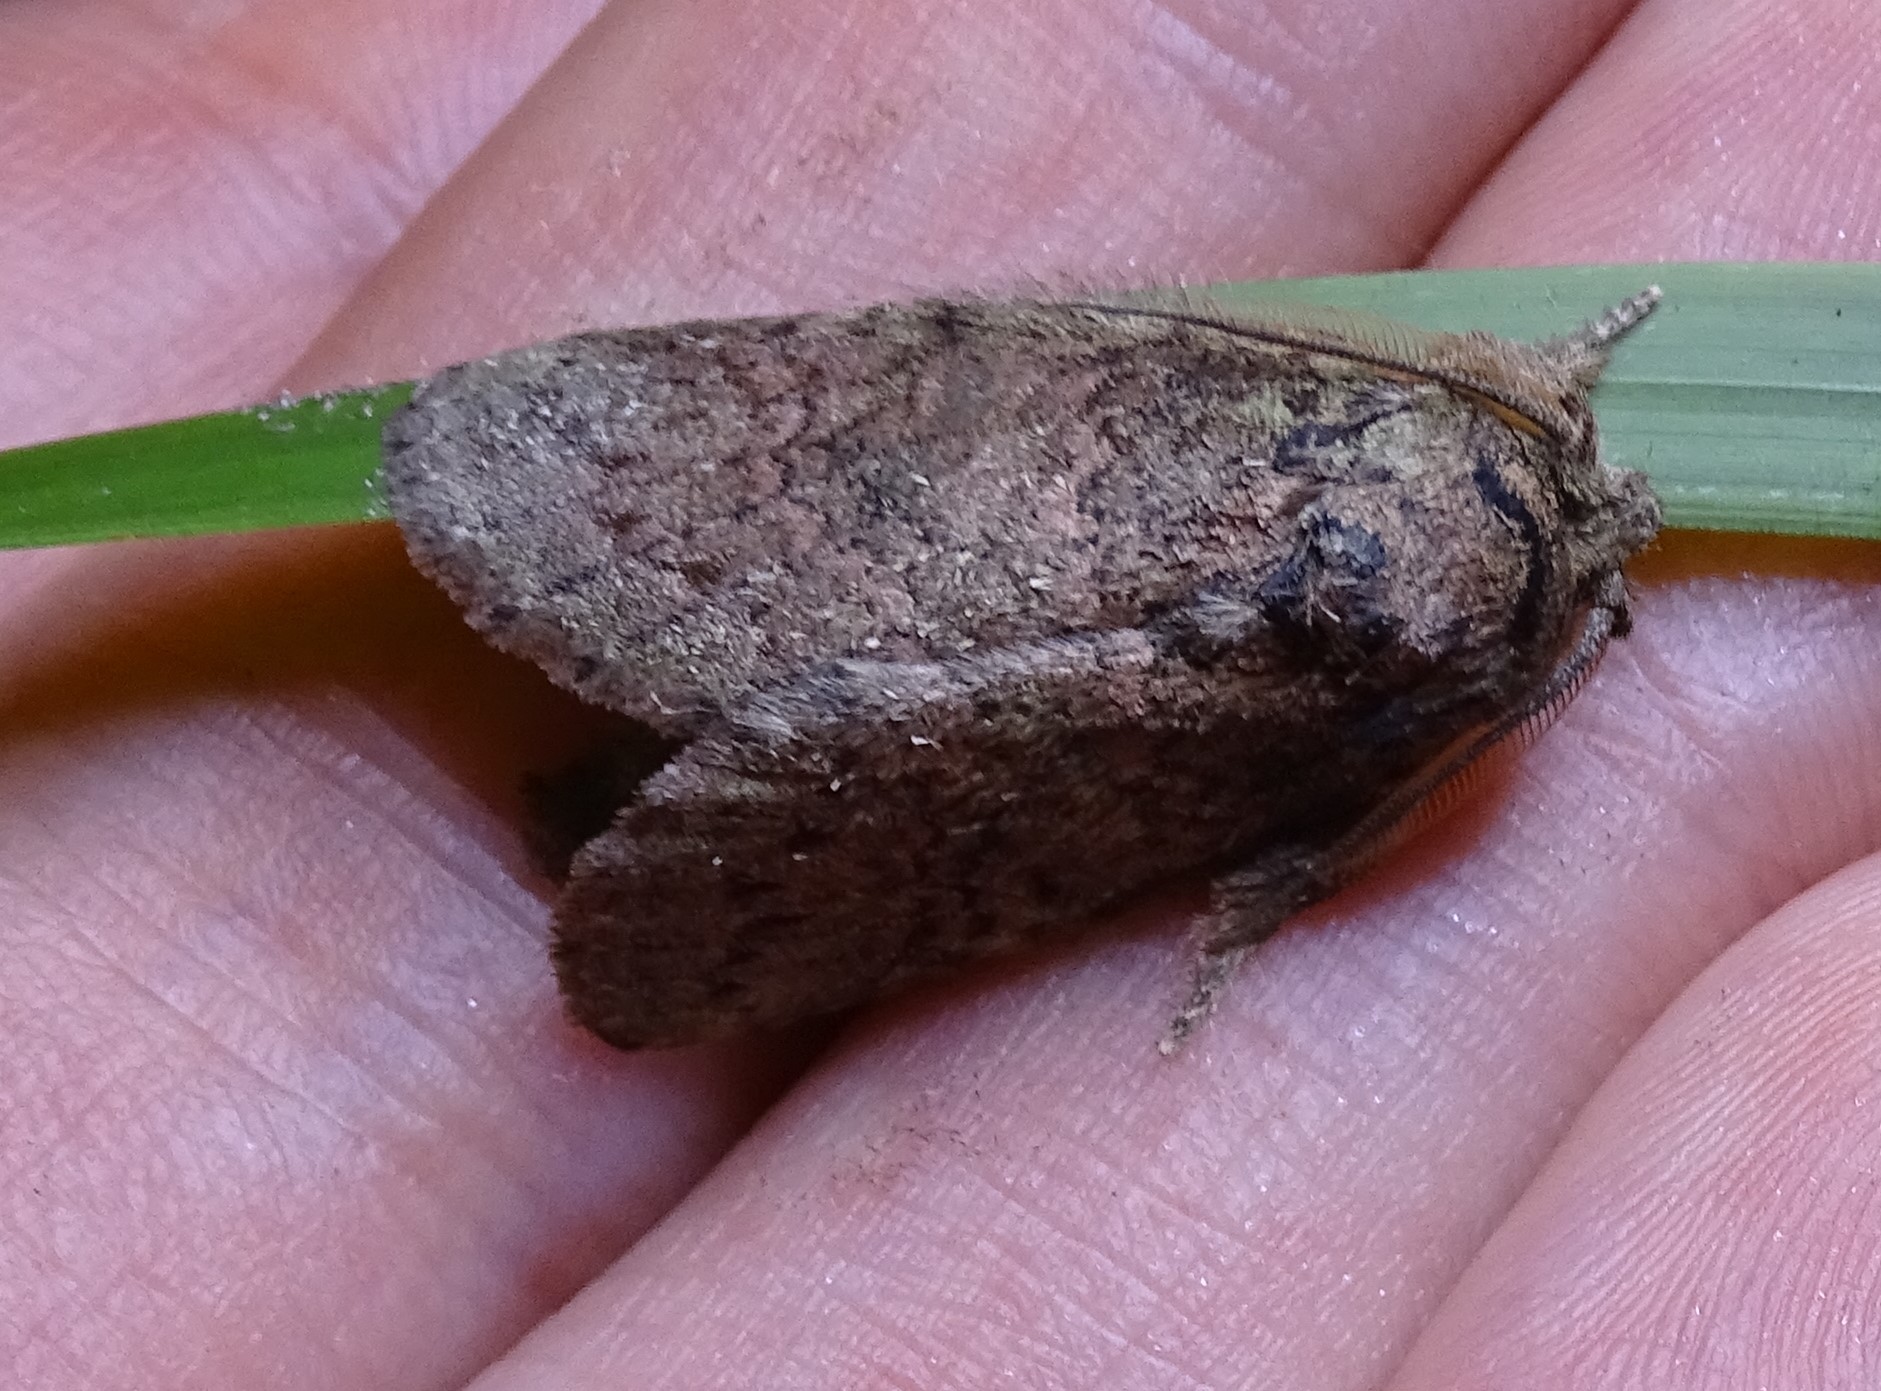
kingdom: Animalia
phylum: Arthropoda
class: Insecta
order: Lepidoptera
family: Notodontidae
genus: Disphragis
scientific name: Disphragis Cecrita guttivitta
